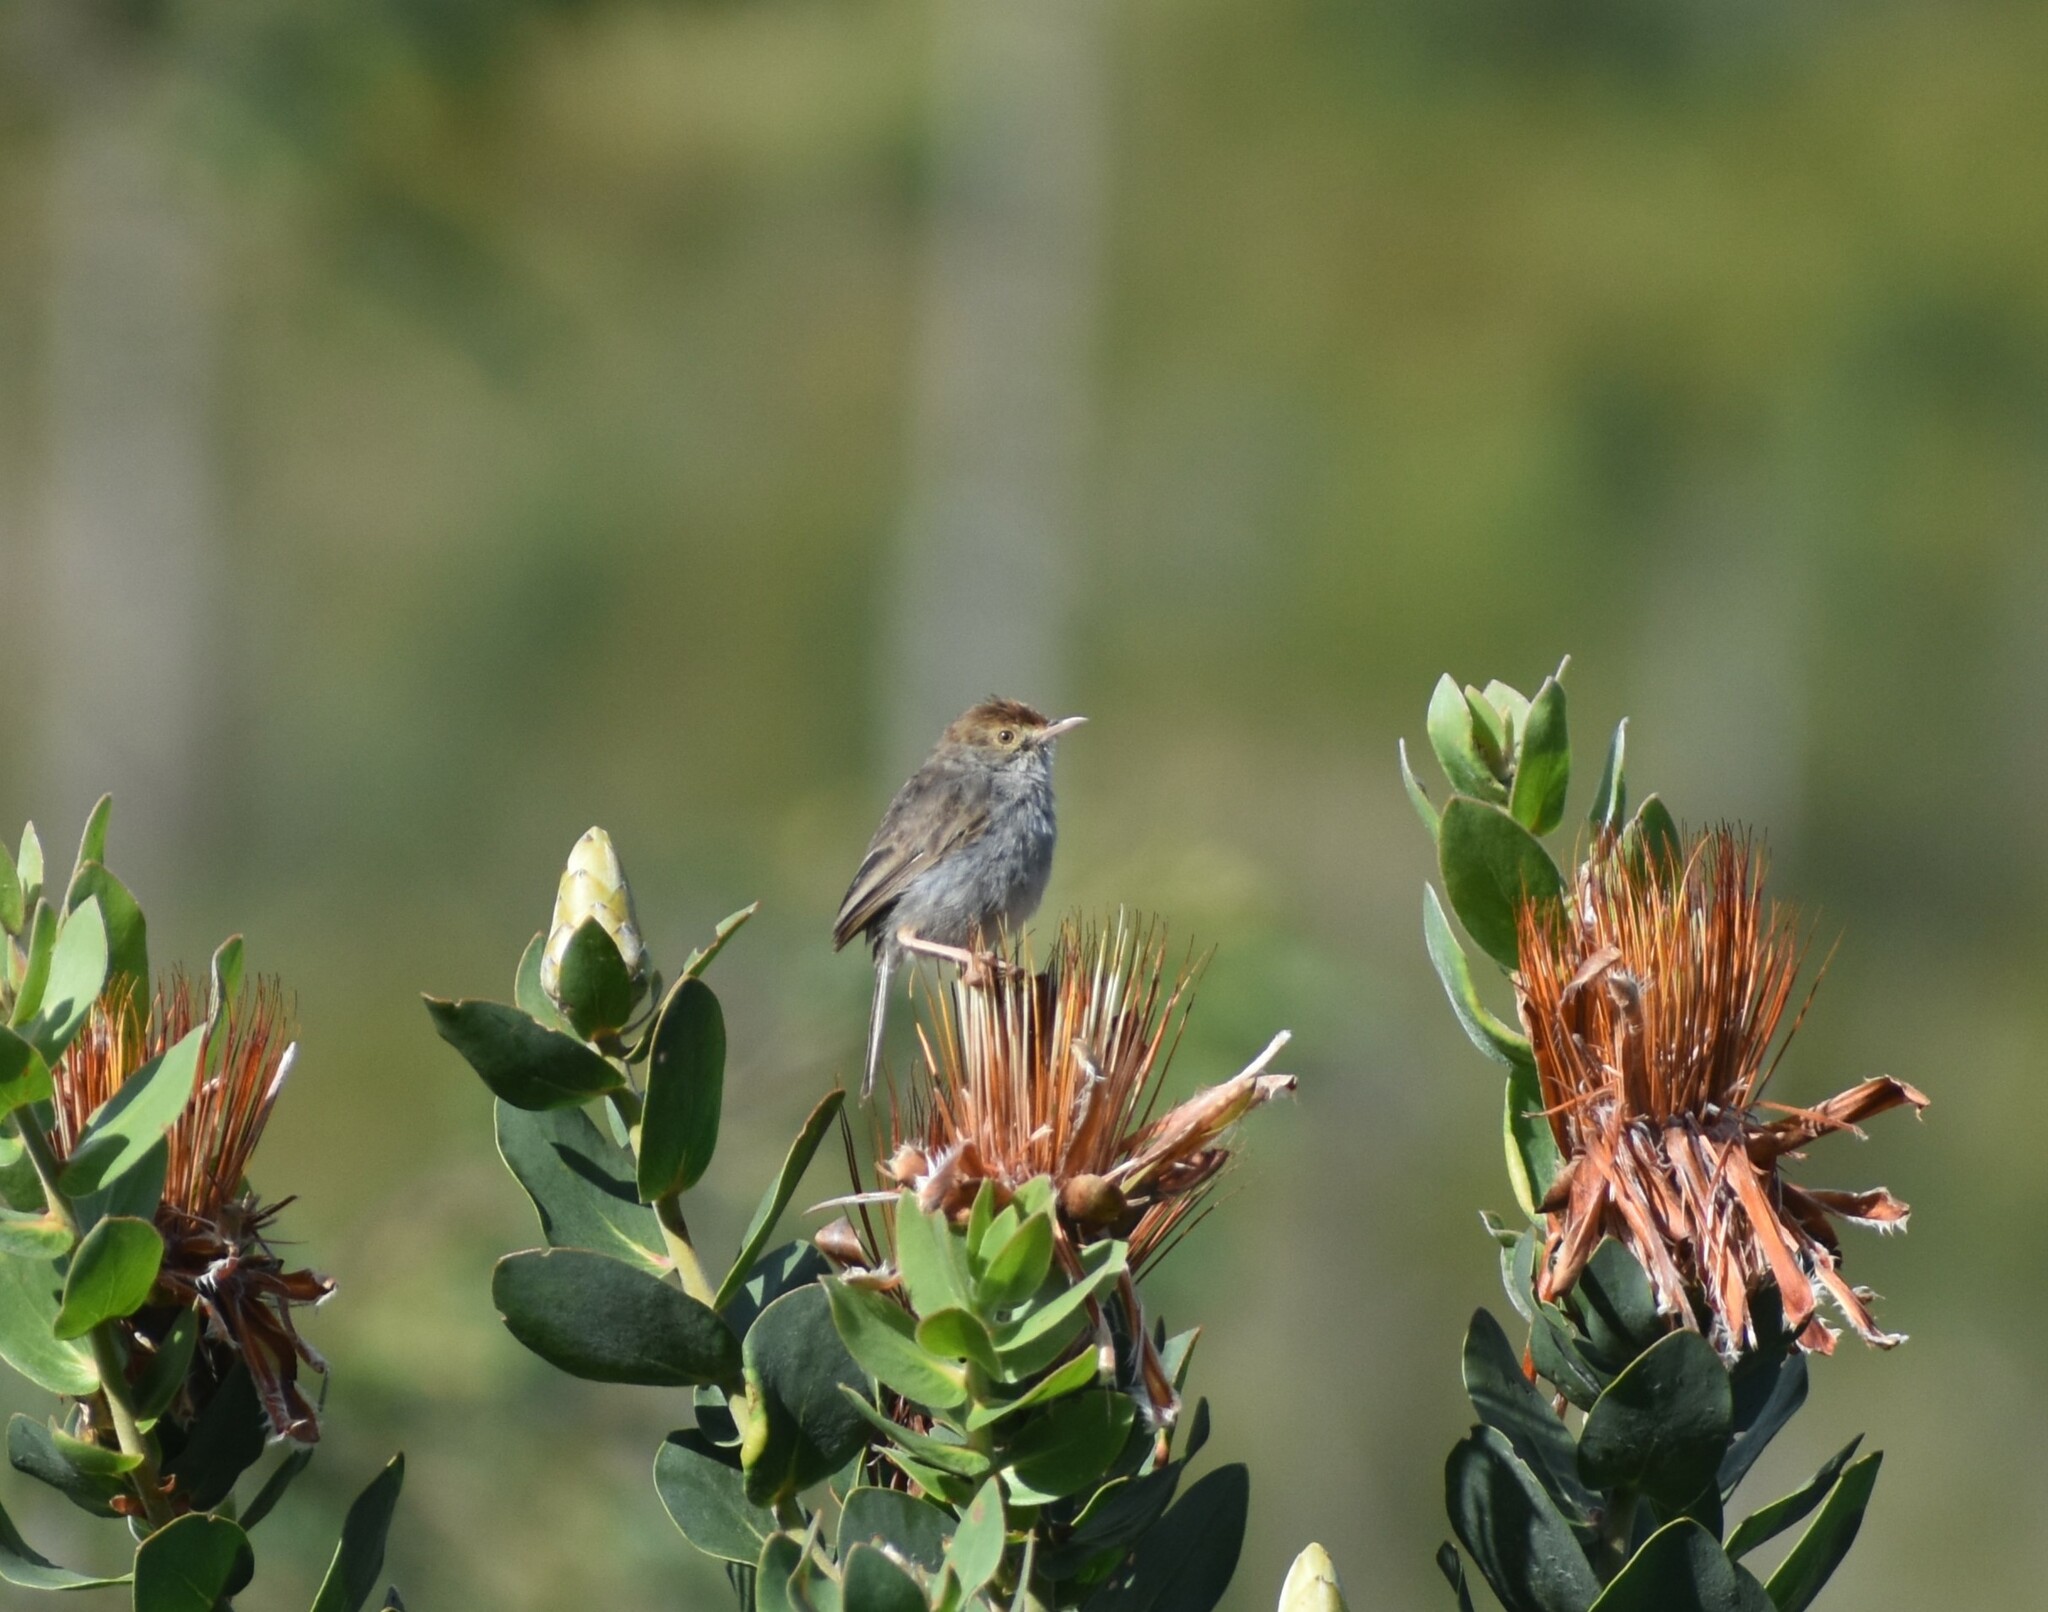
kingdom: Animalia
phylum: Chordata
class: Aves
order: Passeriformes
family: Cisticolidae
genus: Cisticola
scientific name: Cisticola fulvicapilla
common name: Neddicky
